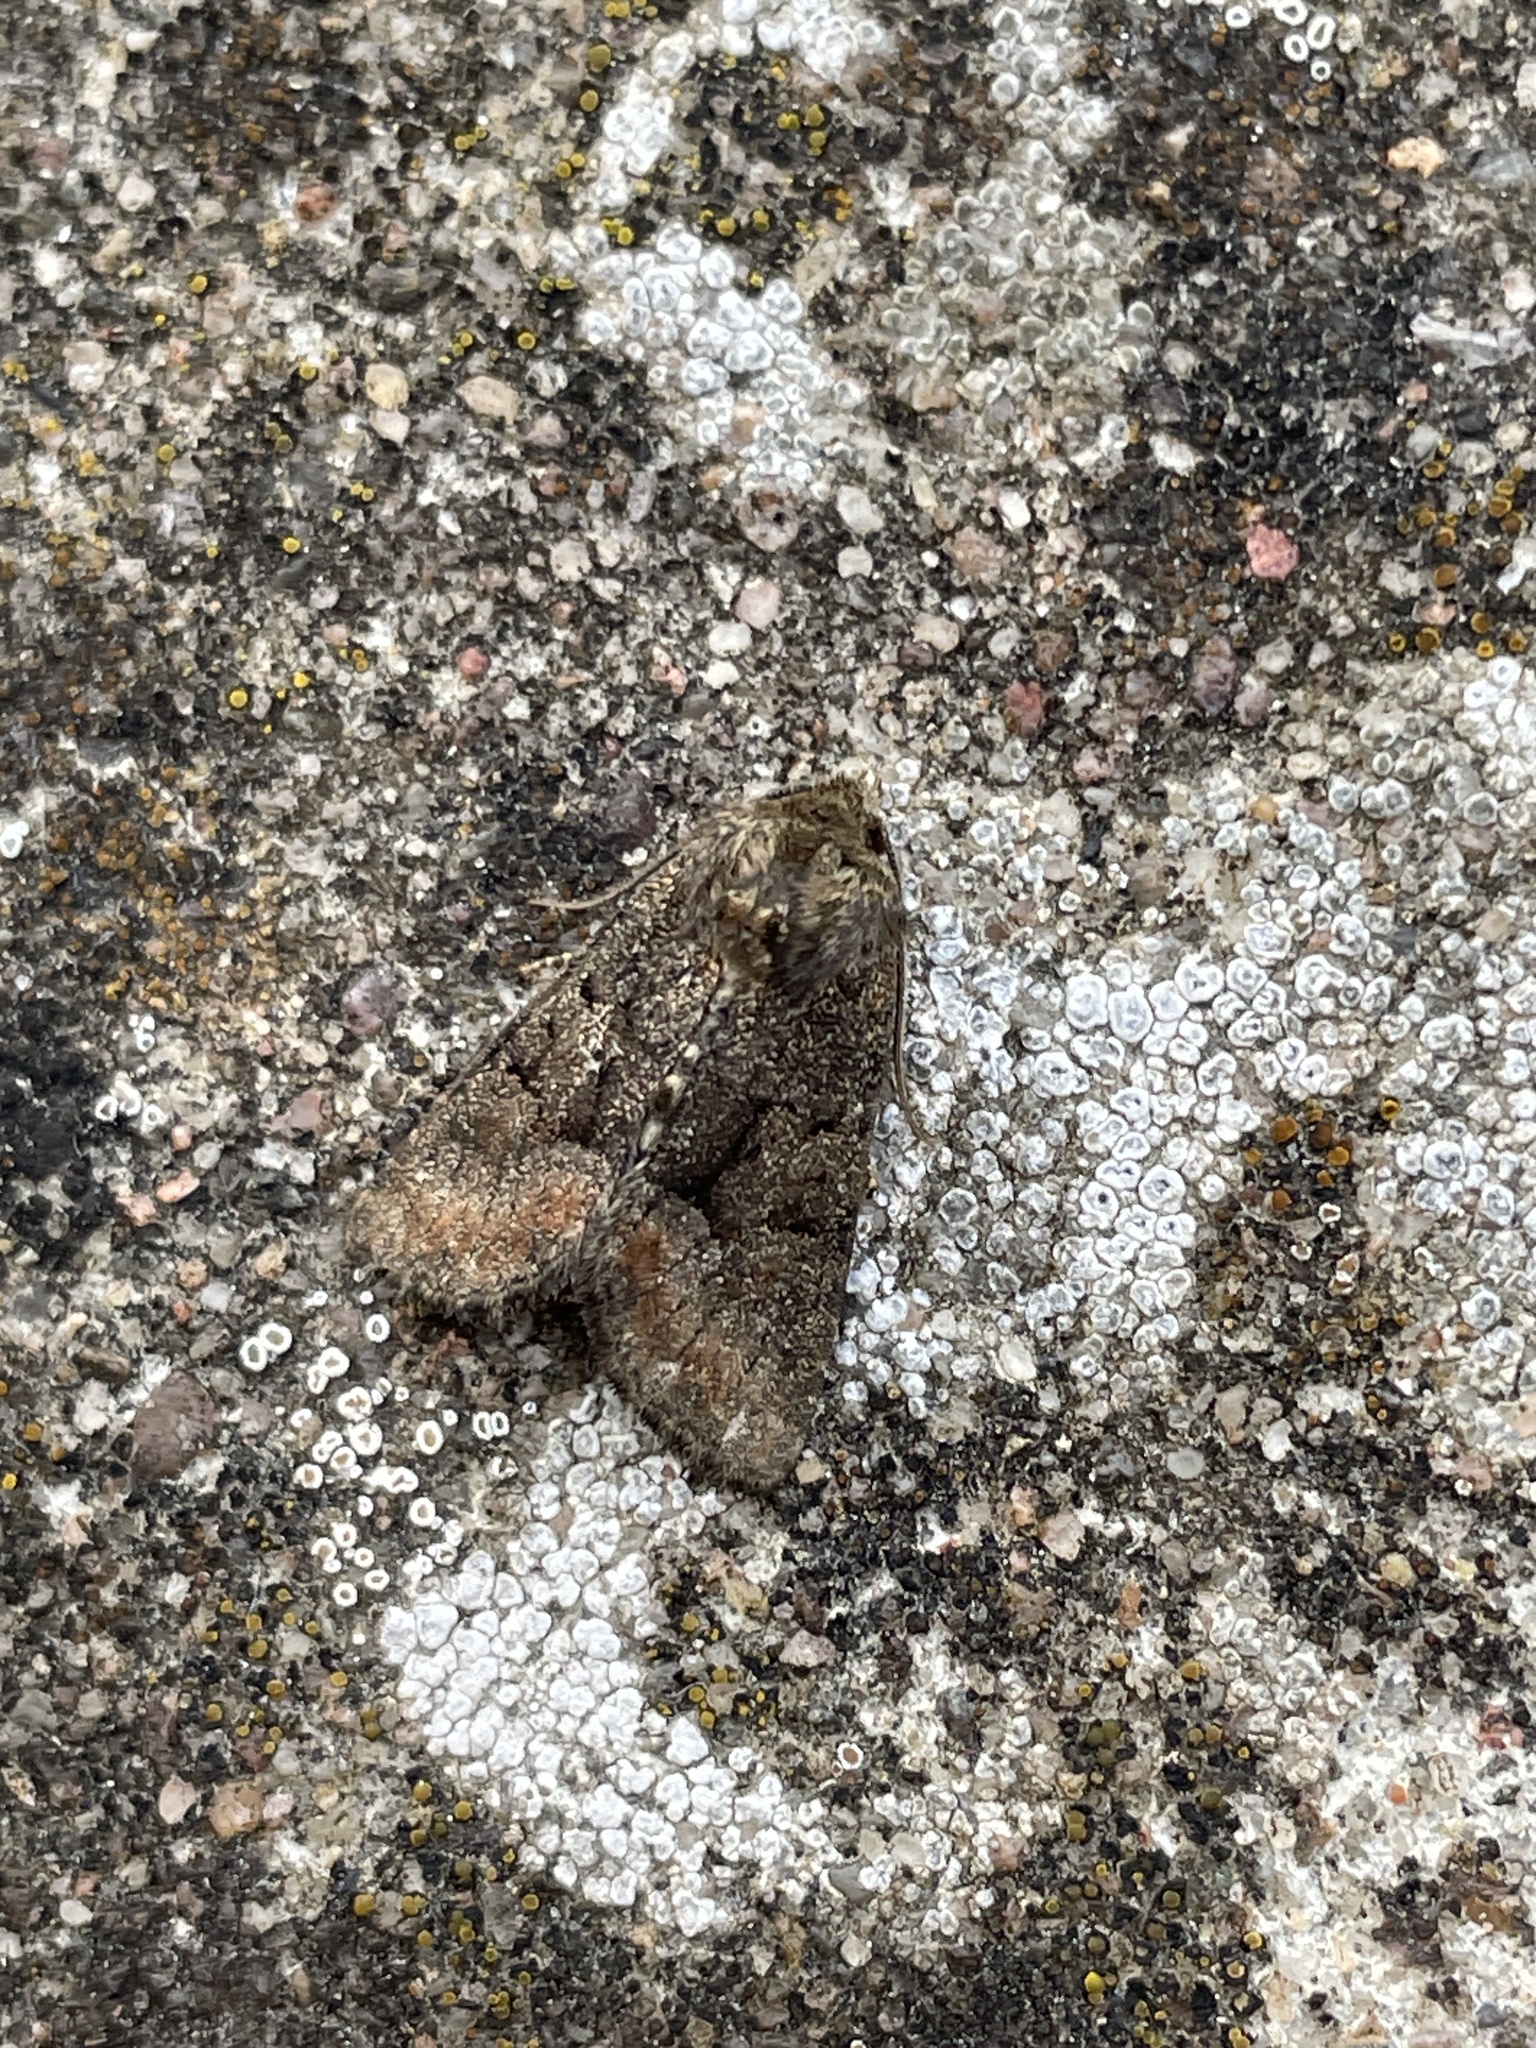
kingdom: Animalia
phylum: Arthropoda
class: Insecta
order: Lepidoptera
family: Noctuidae
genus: Oligia
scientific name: Oligia latruncula
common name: Tawny marbled minor
